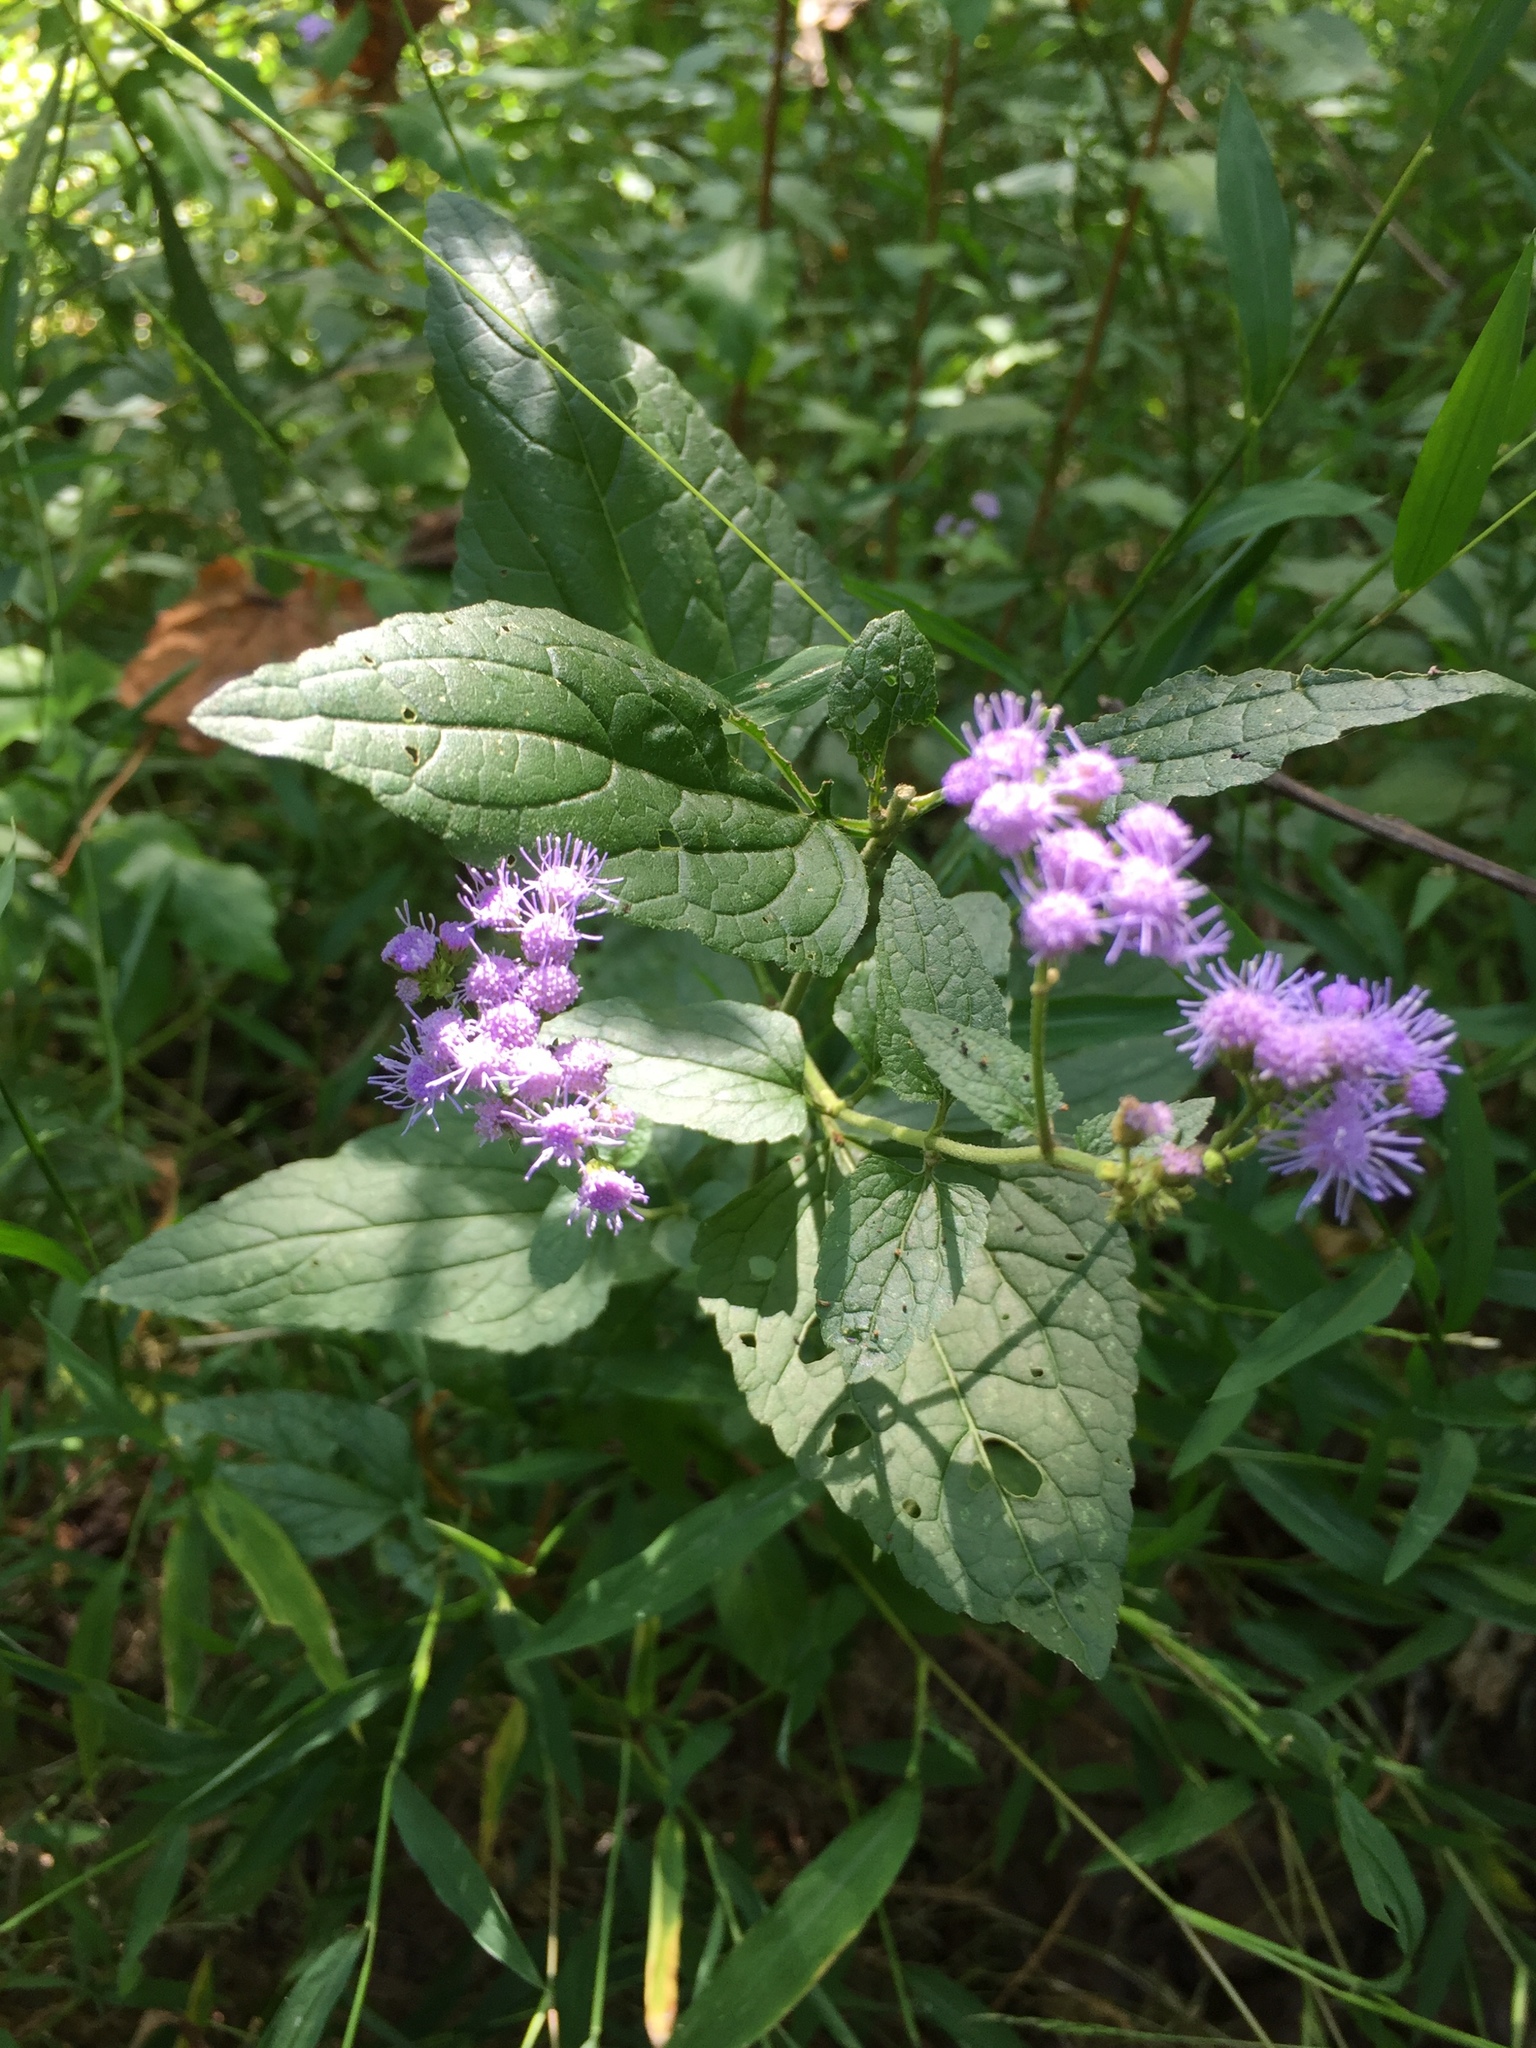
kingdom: Plantae
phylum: Tracheophyta
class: Magnoliopsida
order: Asterales
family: Asteraceae
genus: Conoclinium
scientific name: Conoclinium coelestinum
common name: Blue mistflower
